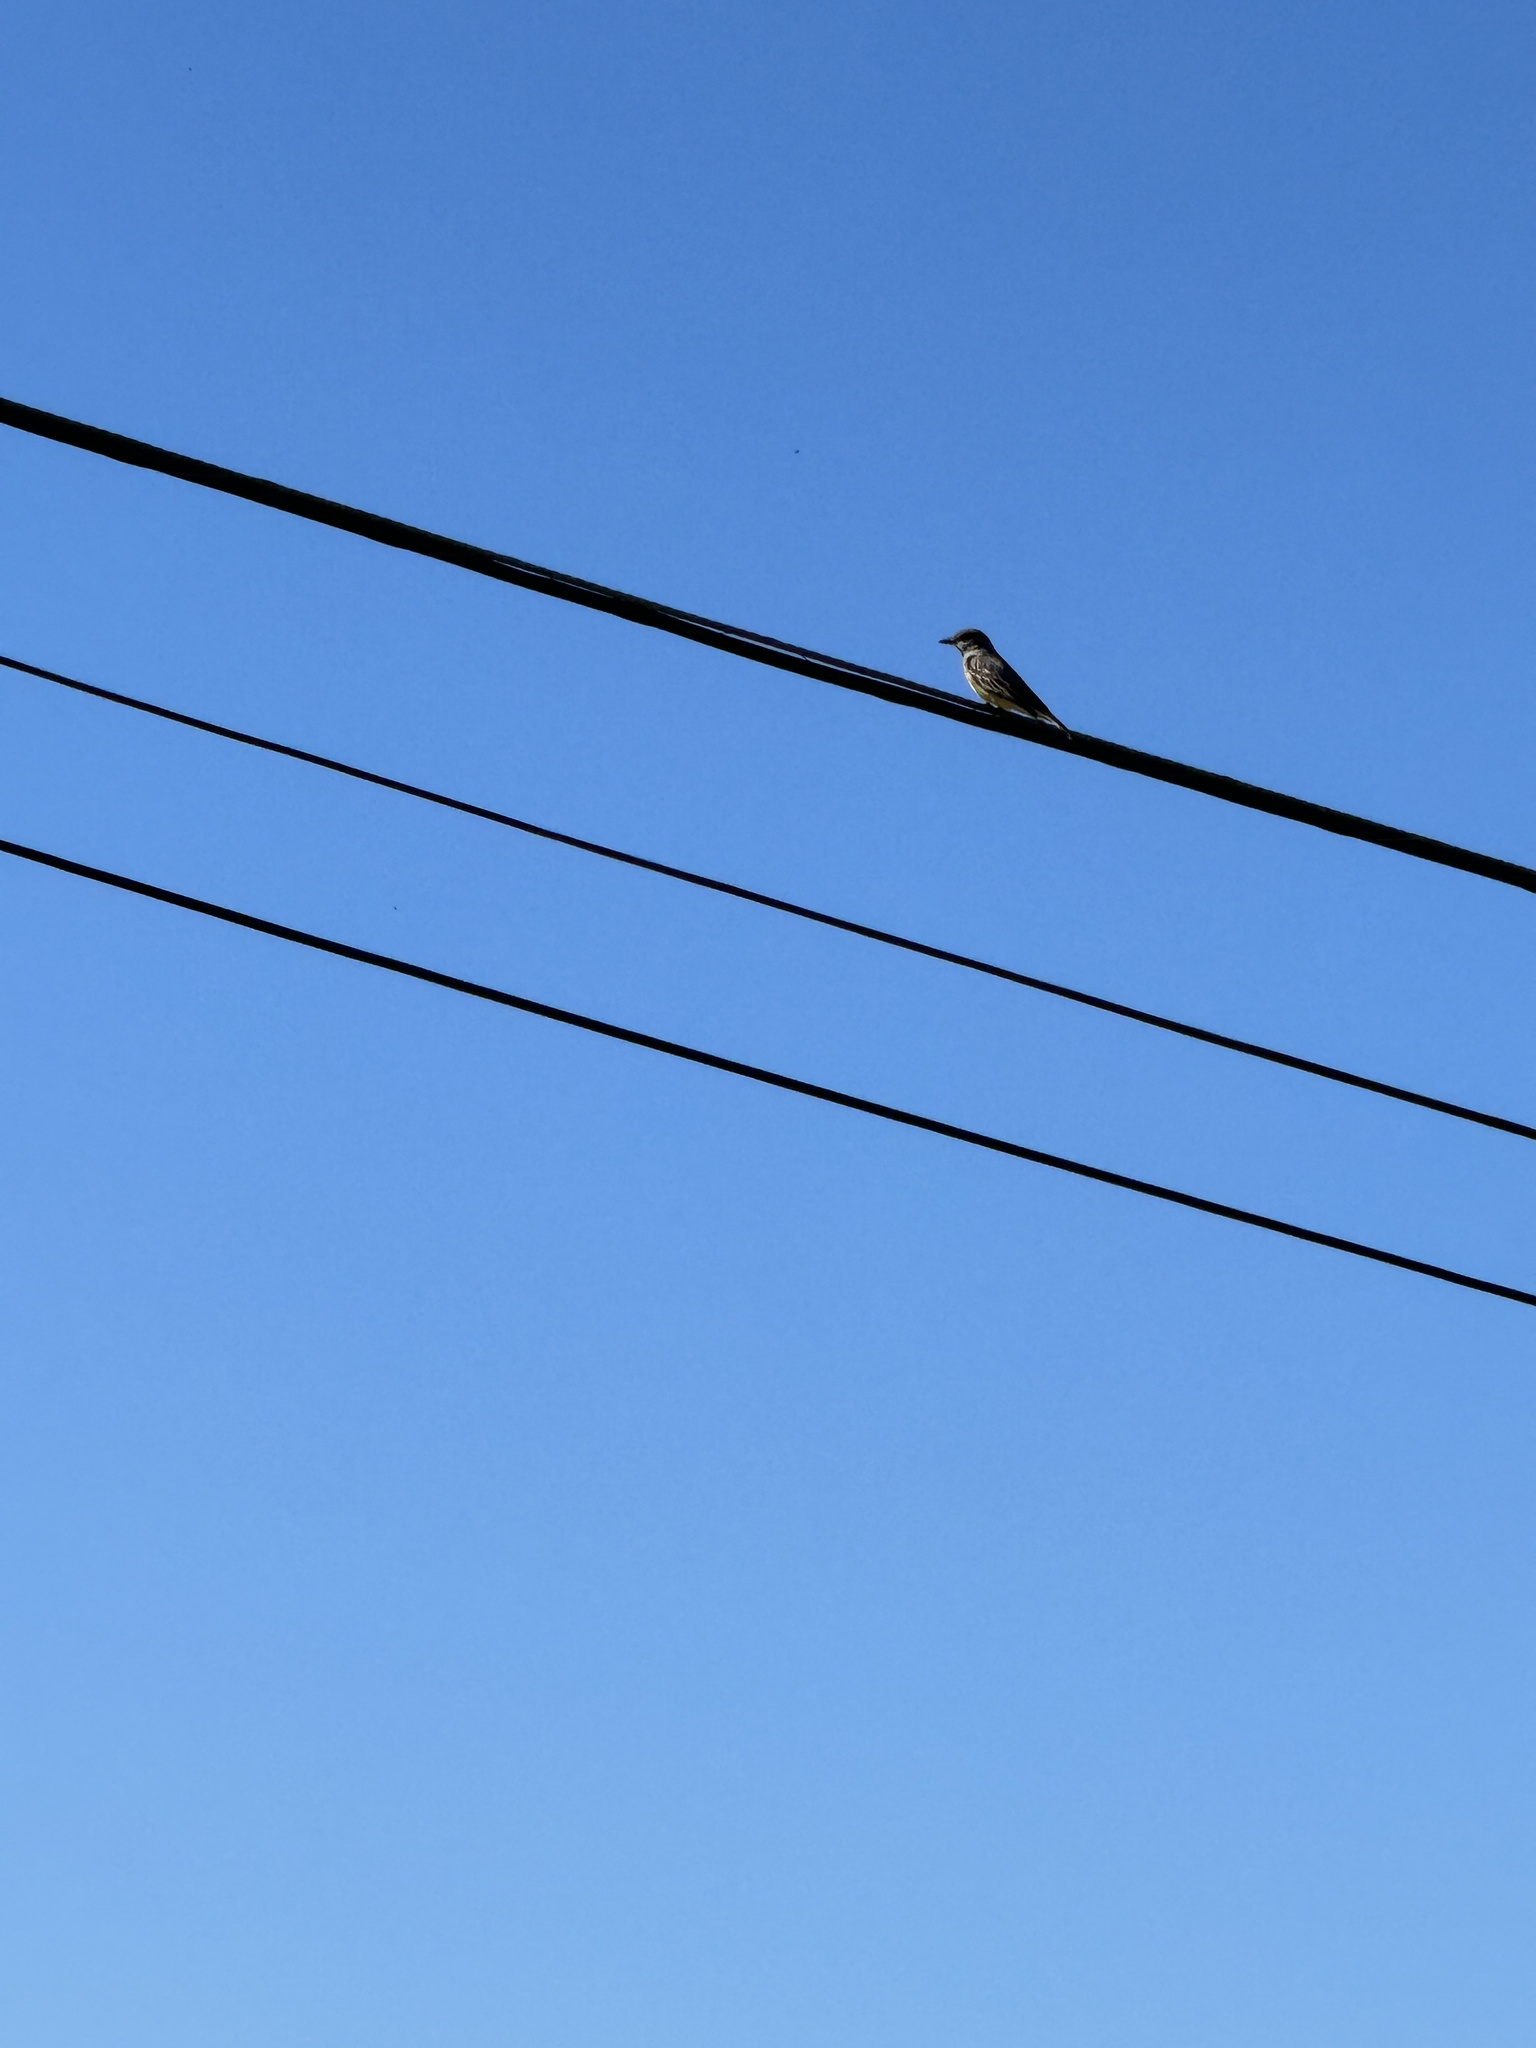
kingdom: Animalia
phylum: Chordata
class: Aves
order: Passeriformes
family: Tyrannidae
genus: Tyrannus
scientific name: Tyrannus vociferans
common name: Cassin's kingbird
